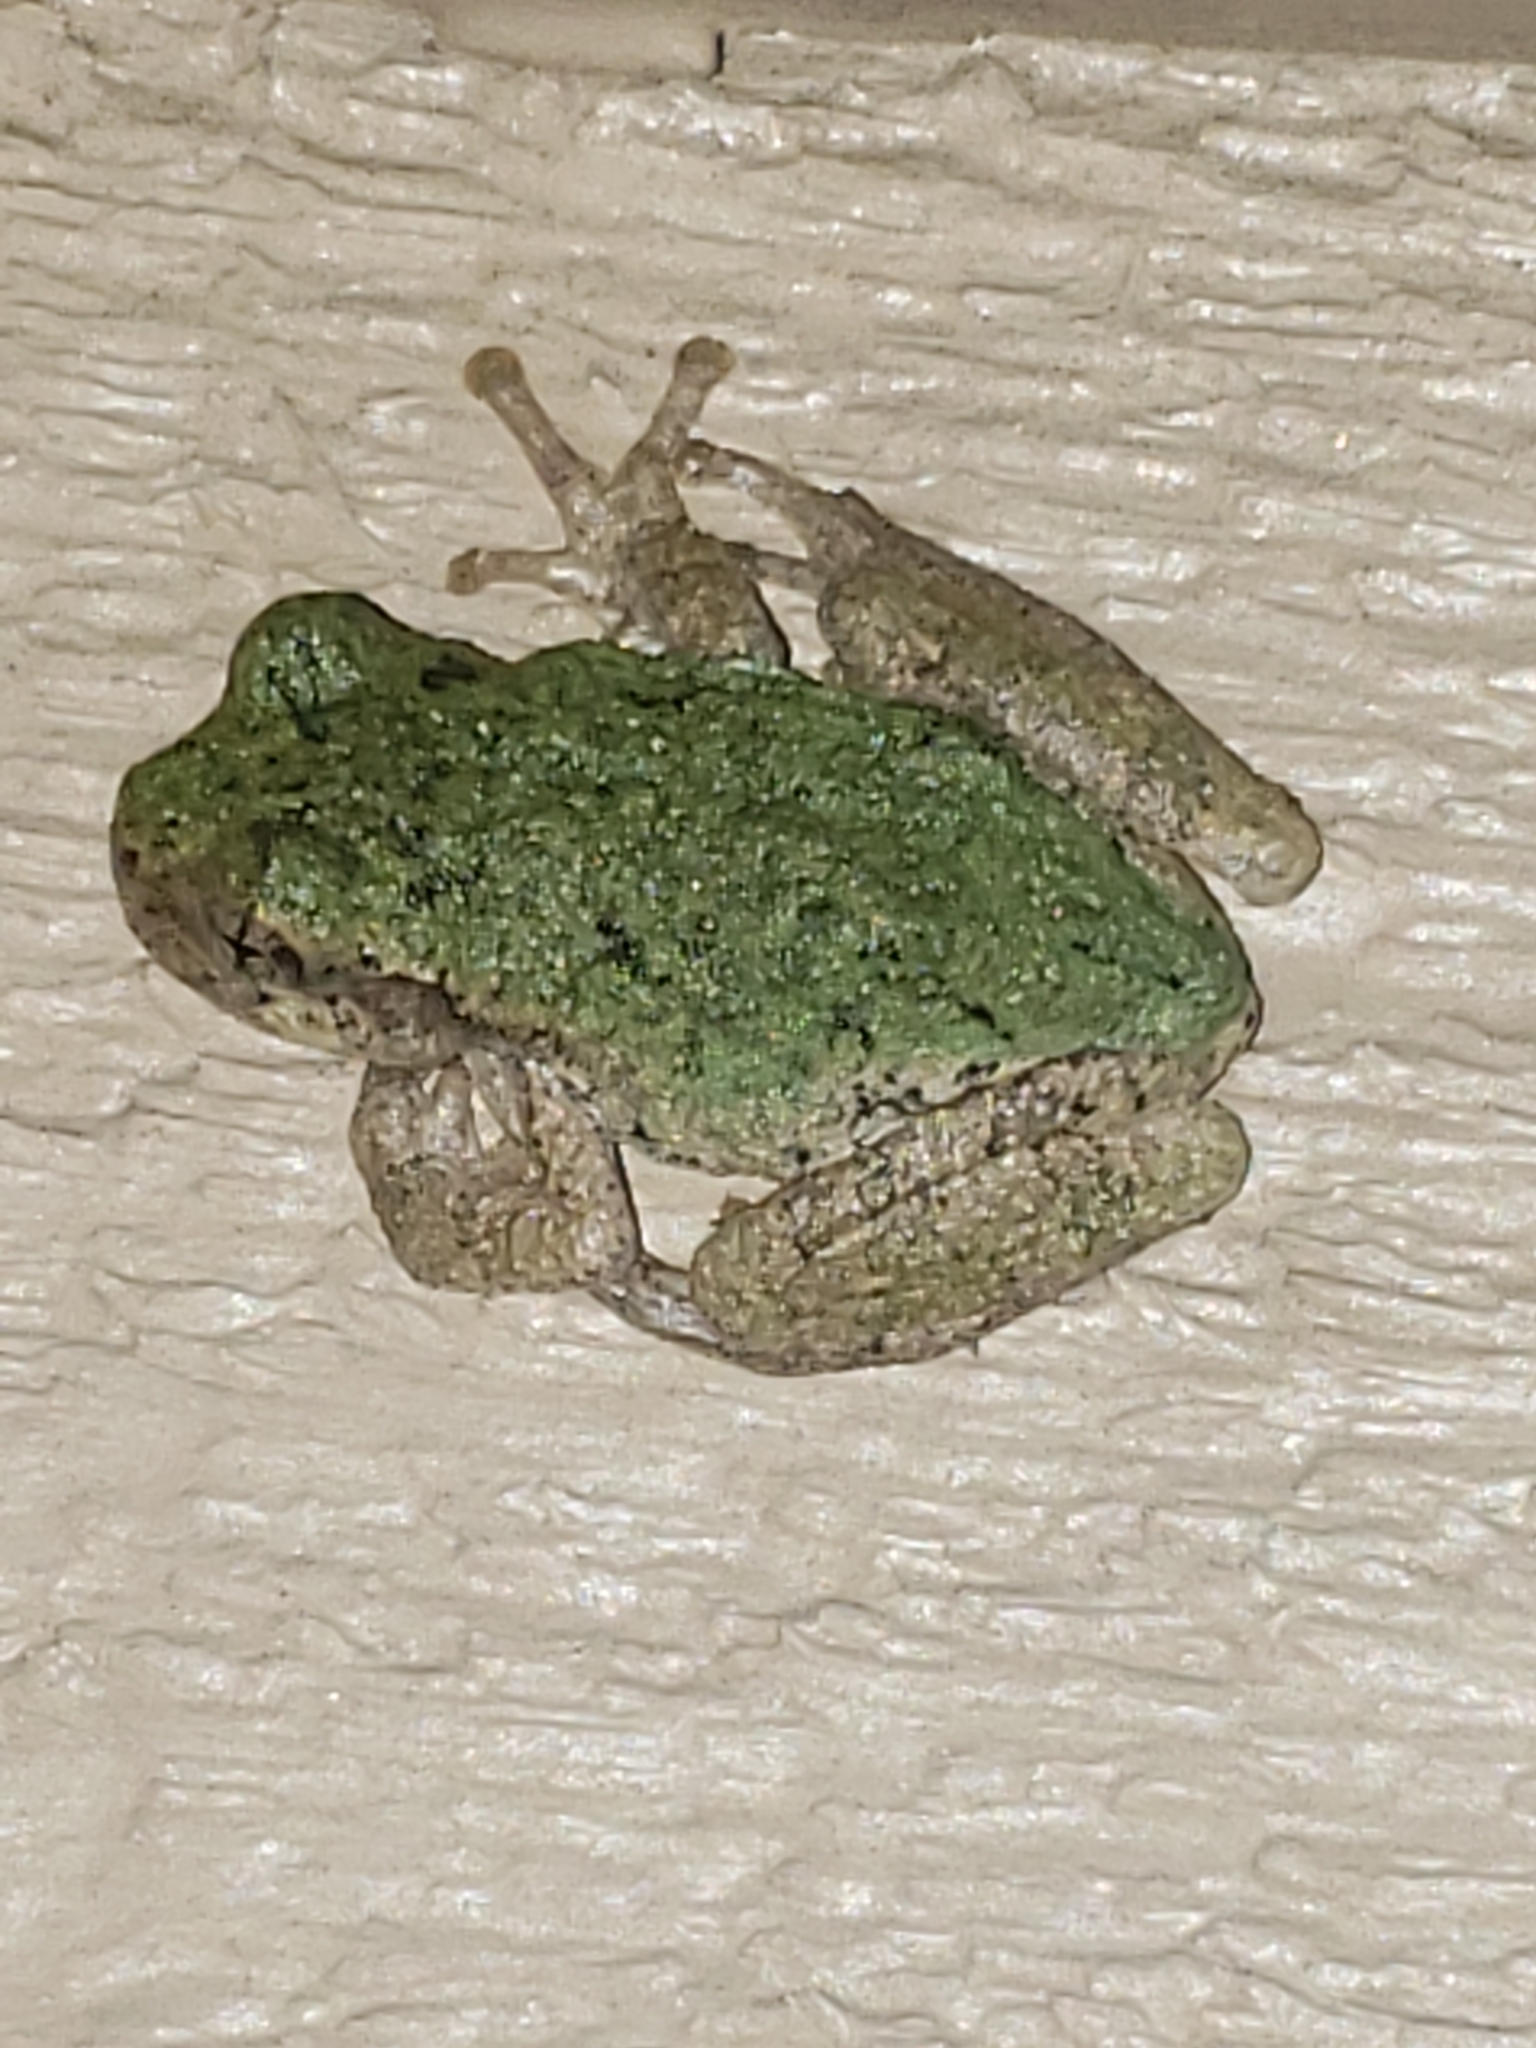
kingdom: Animalia
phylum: Chordata
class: Amphibia
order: Anura
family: Hylidae
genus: Hyla
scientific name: Hyla
